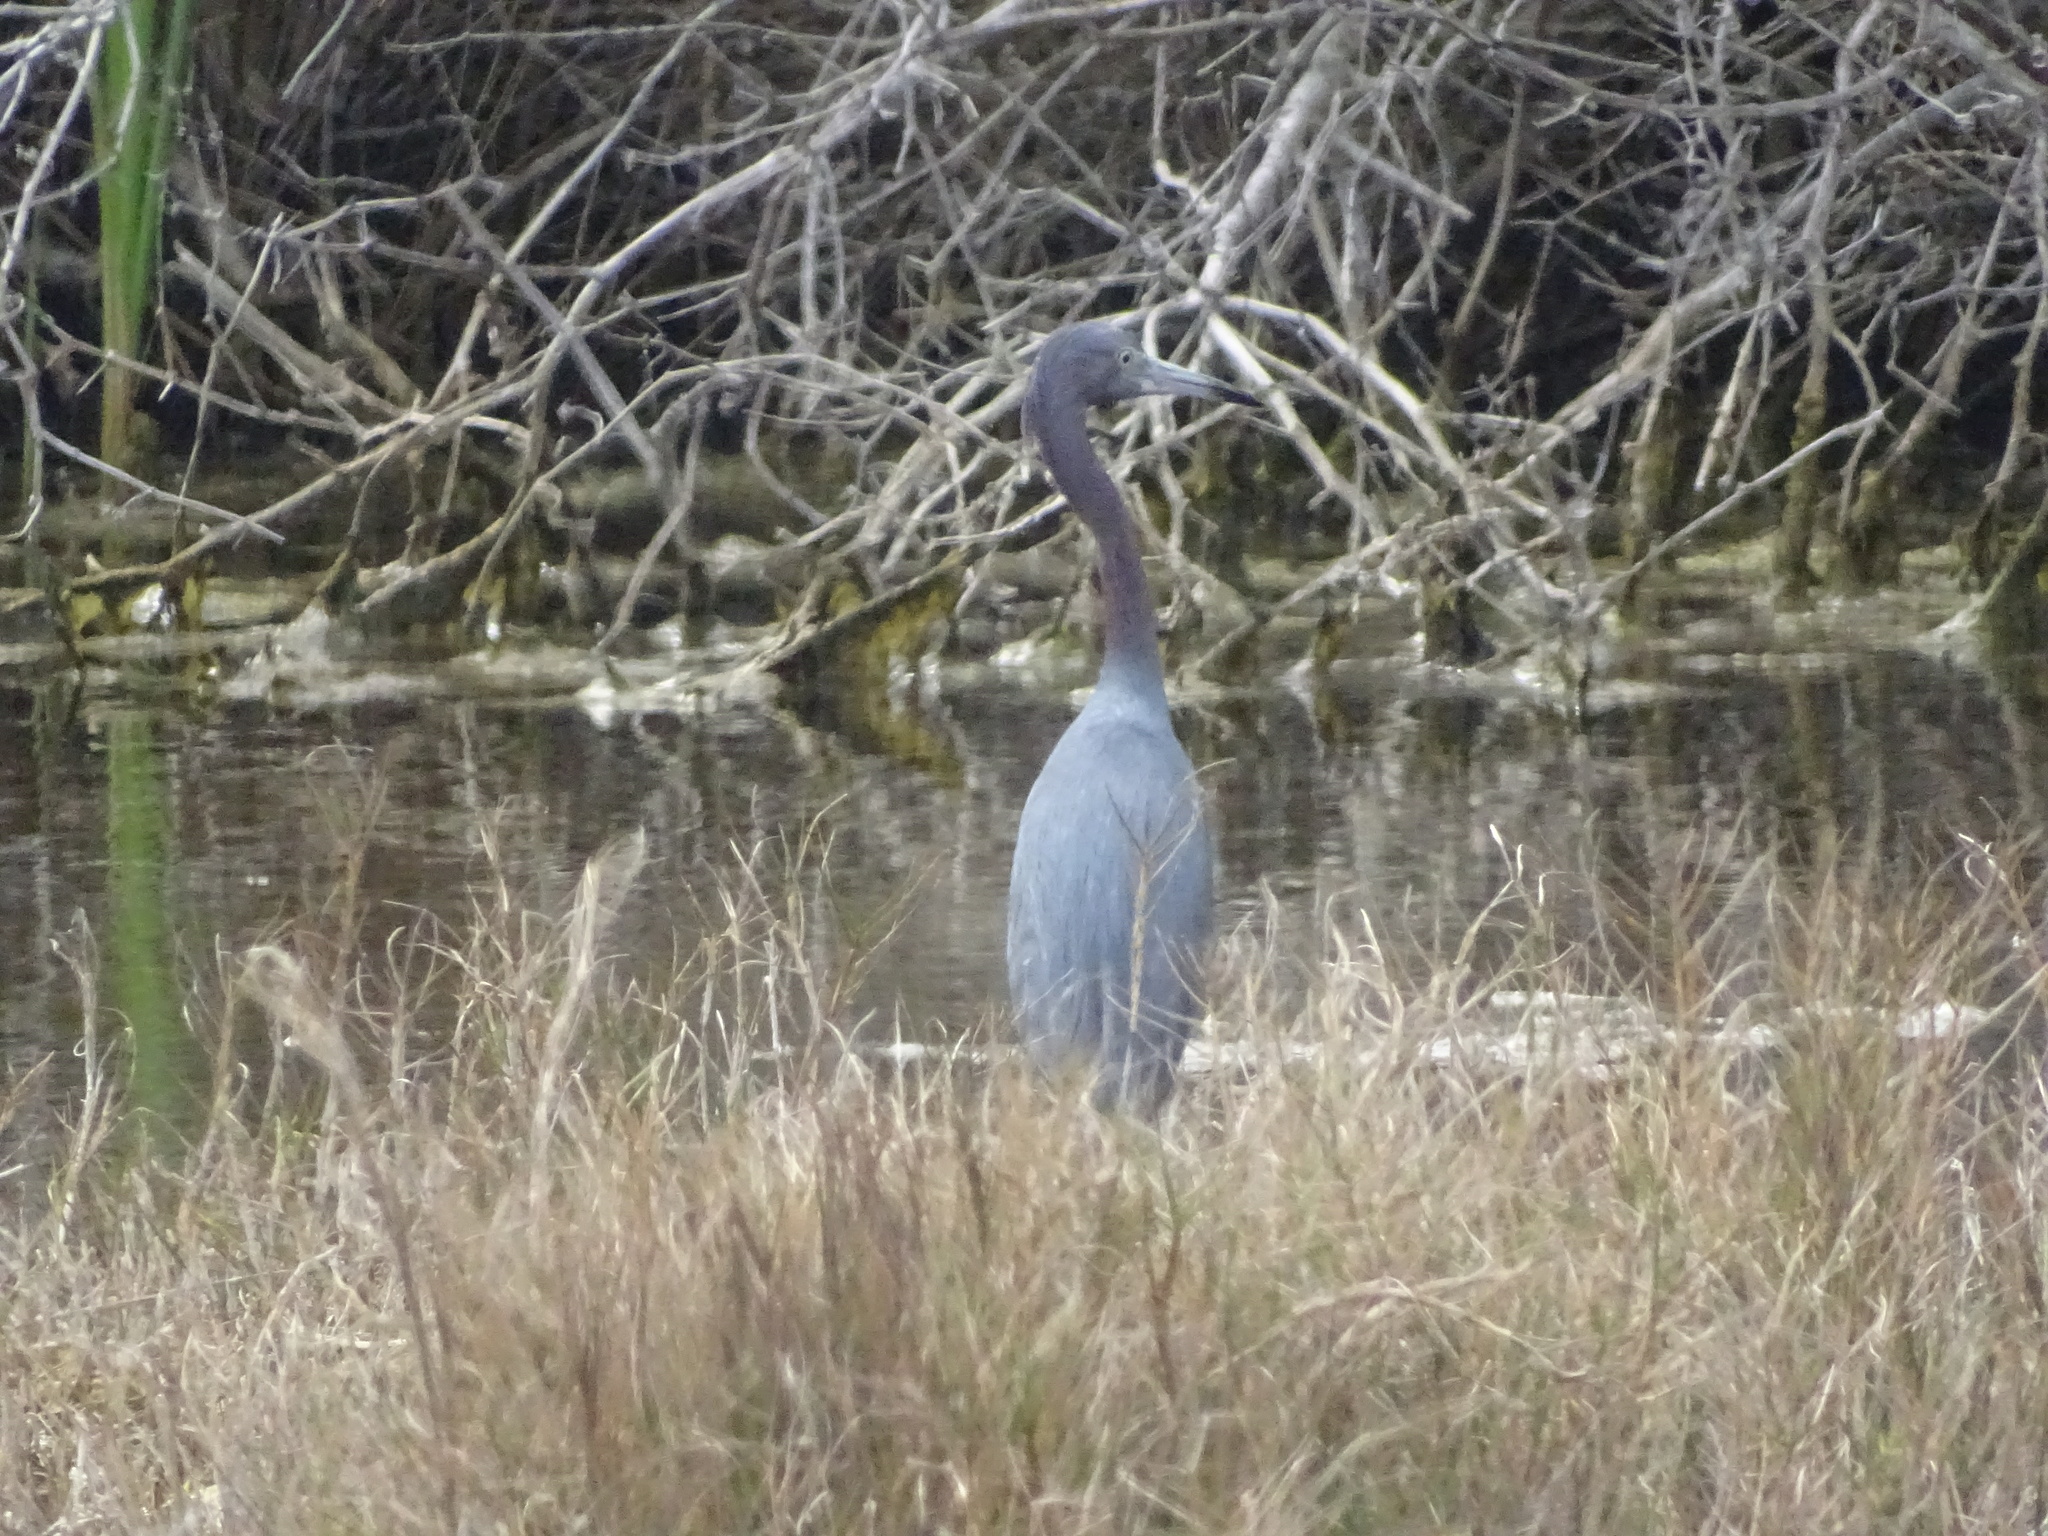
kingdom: Animalia
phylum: Chordata
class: Aves
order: Pelecaniformes
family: Ardeidae
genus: Egretta
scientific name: Egretta caerulea
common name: Little blue heron
